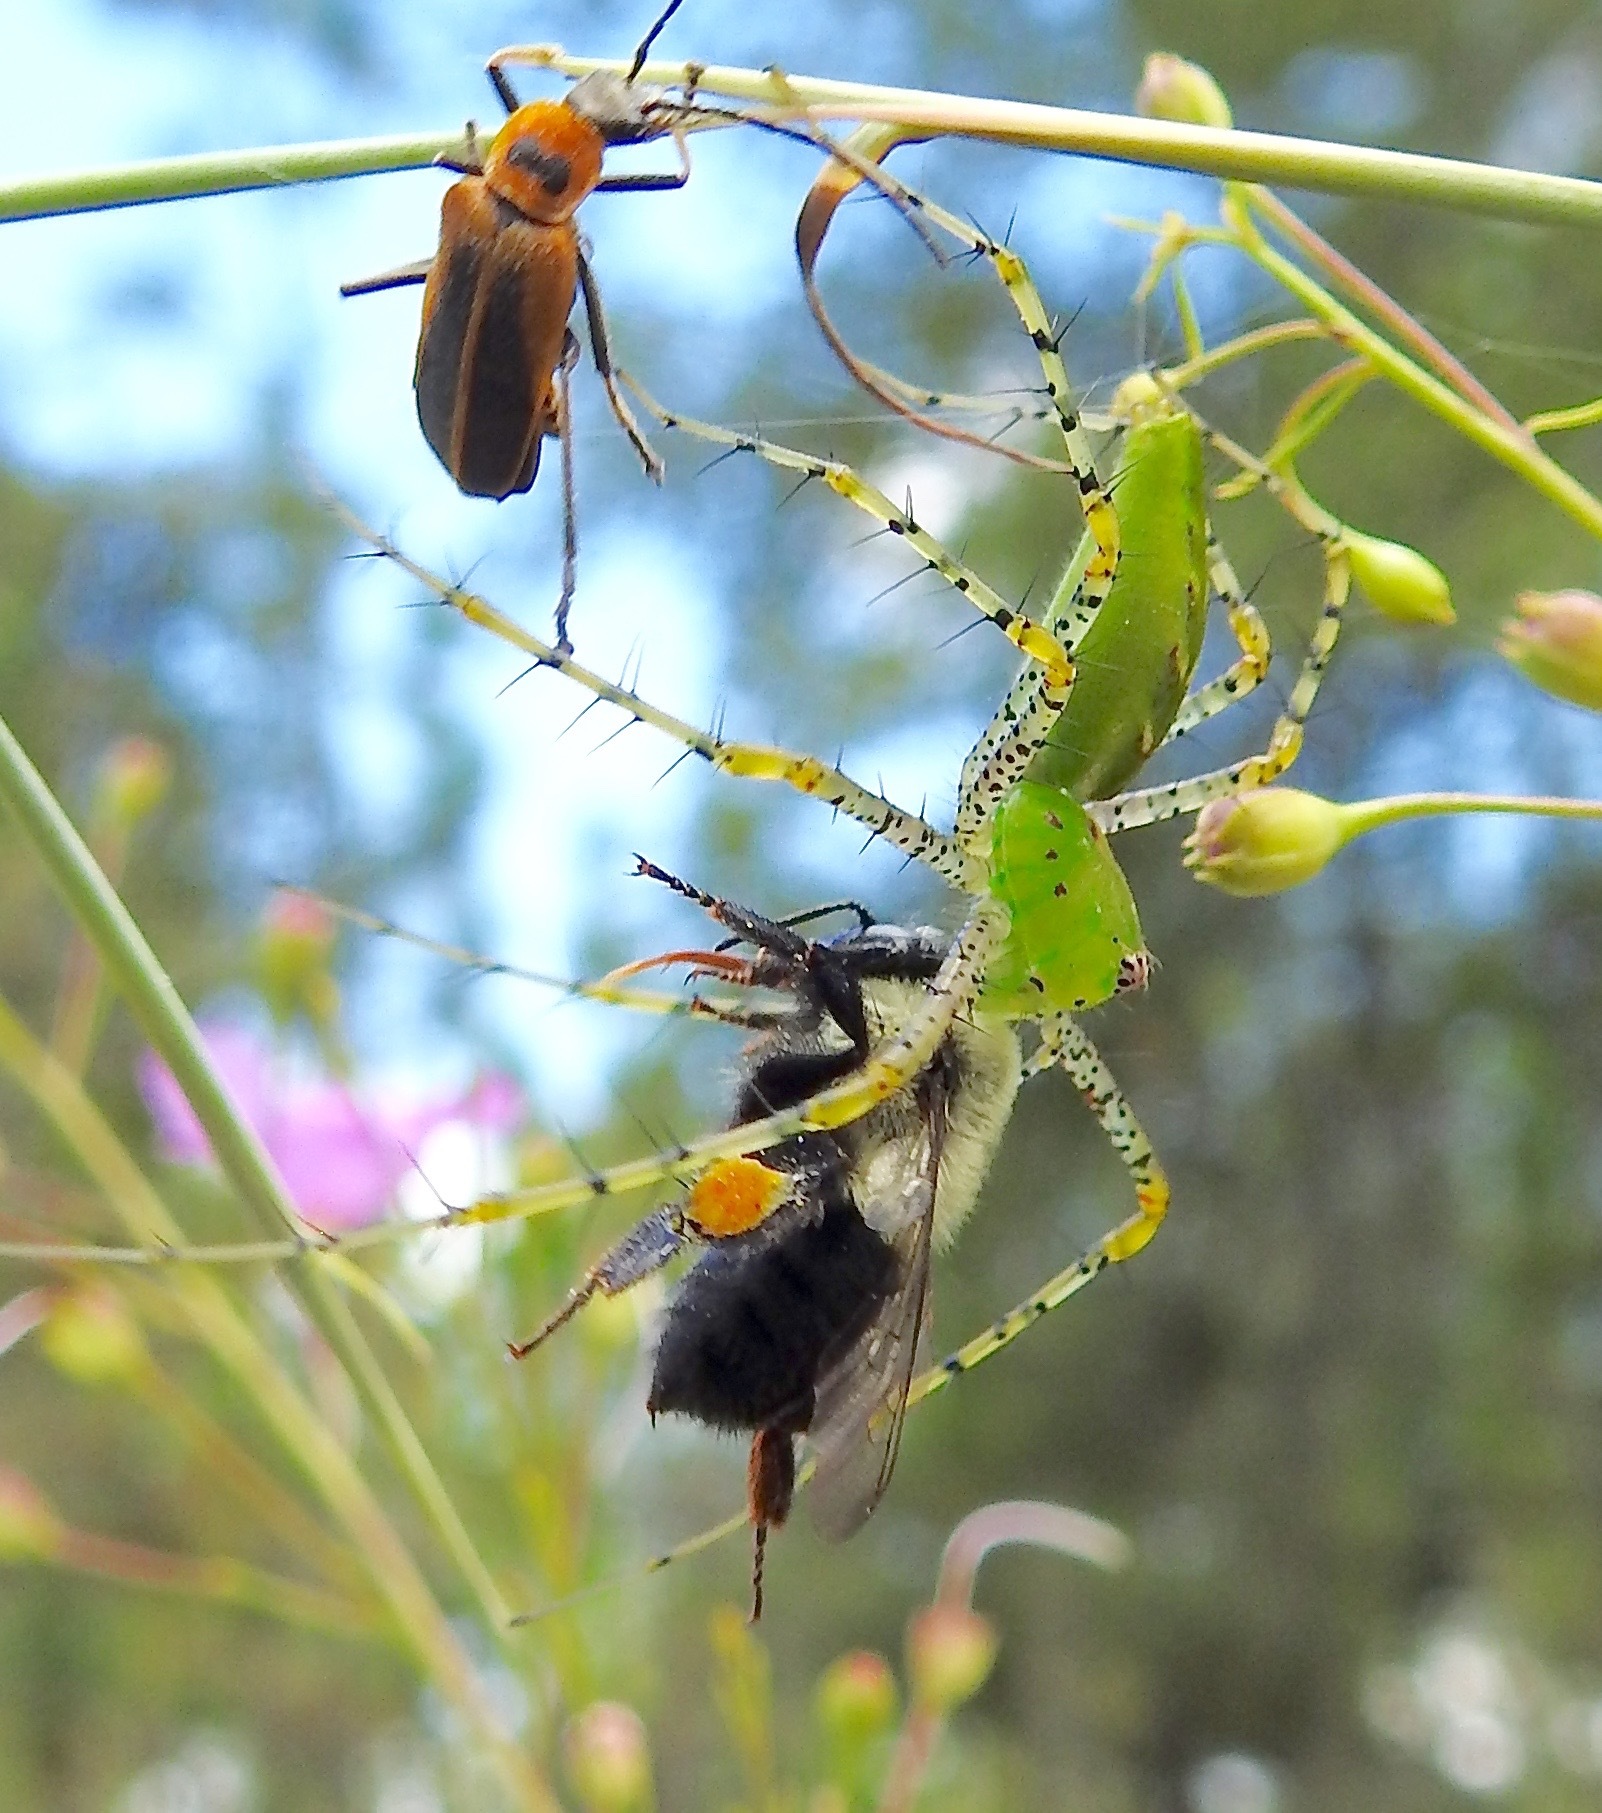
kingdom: Animalia
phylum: Arthropoda
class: Arachnida
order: Araneae
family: Oxyopidae
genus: Peucetia
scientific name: Peucetia viridans
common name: Lynx spiders
